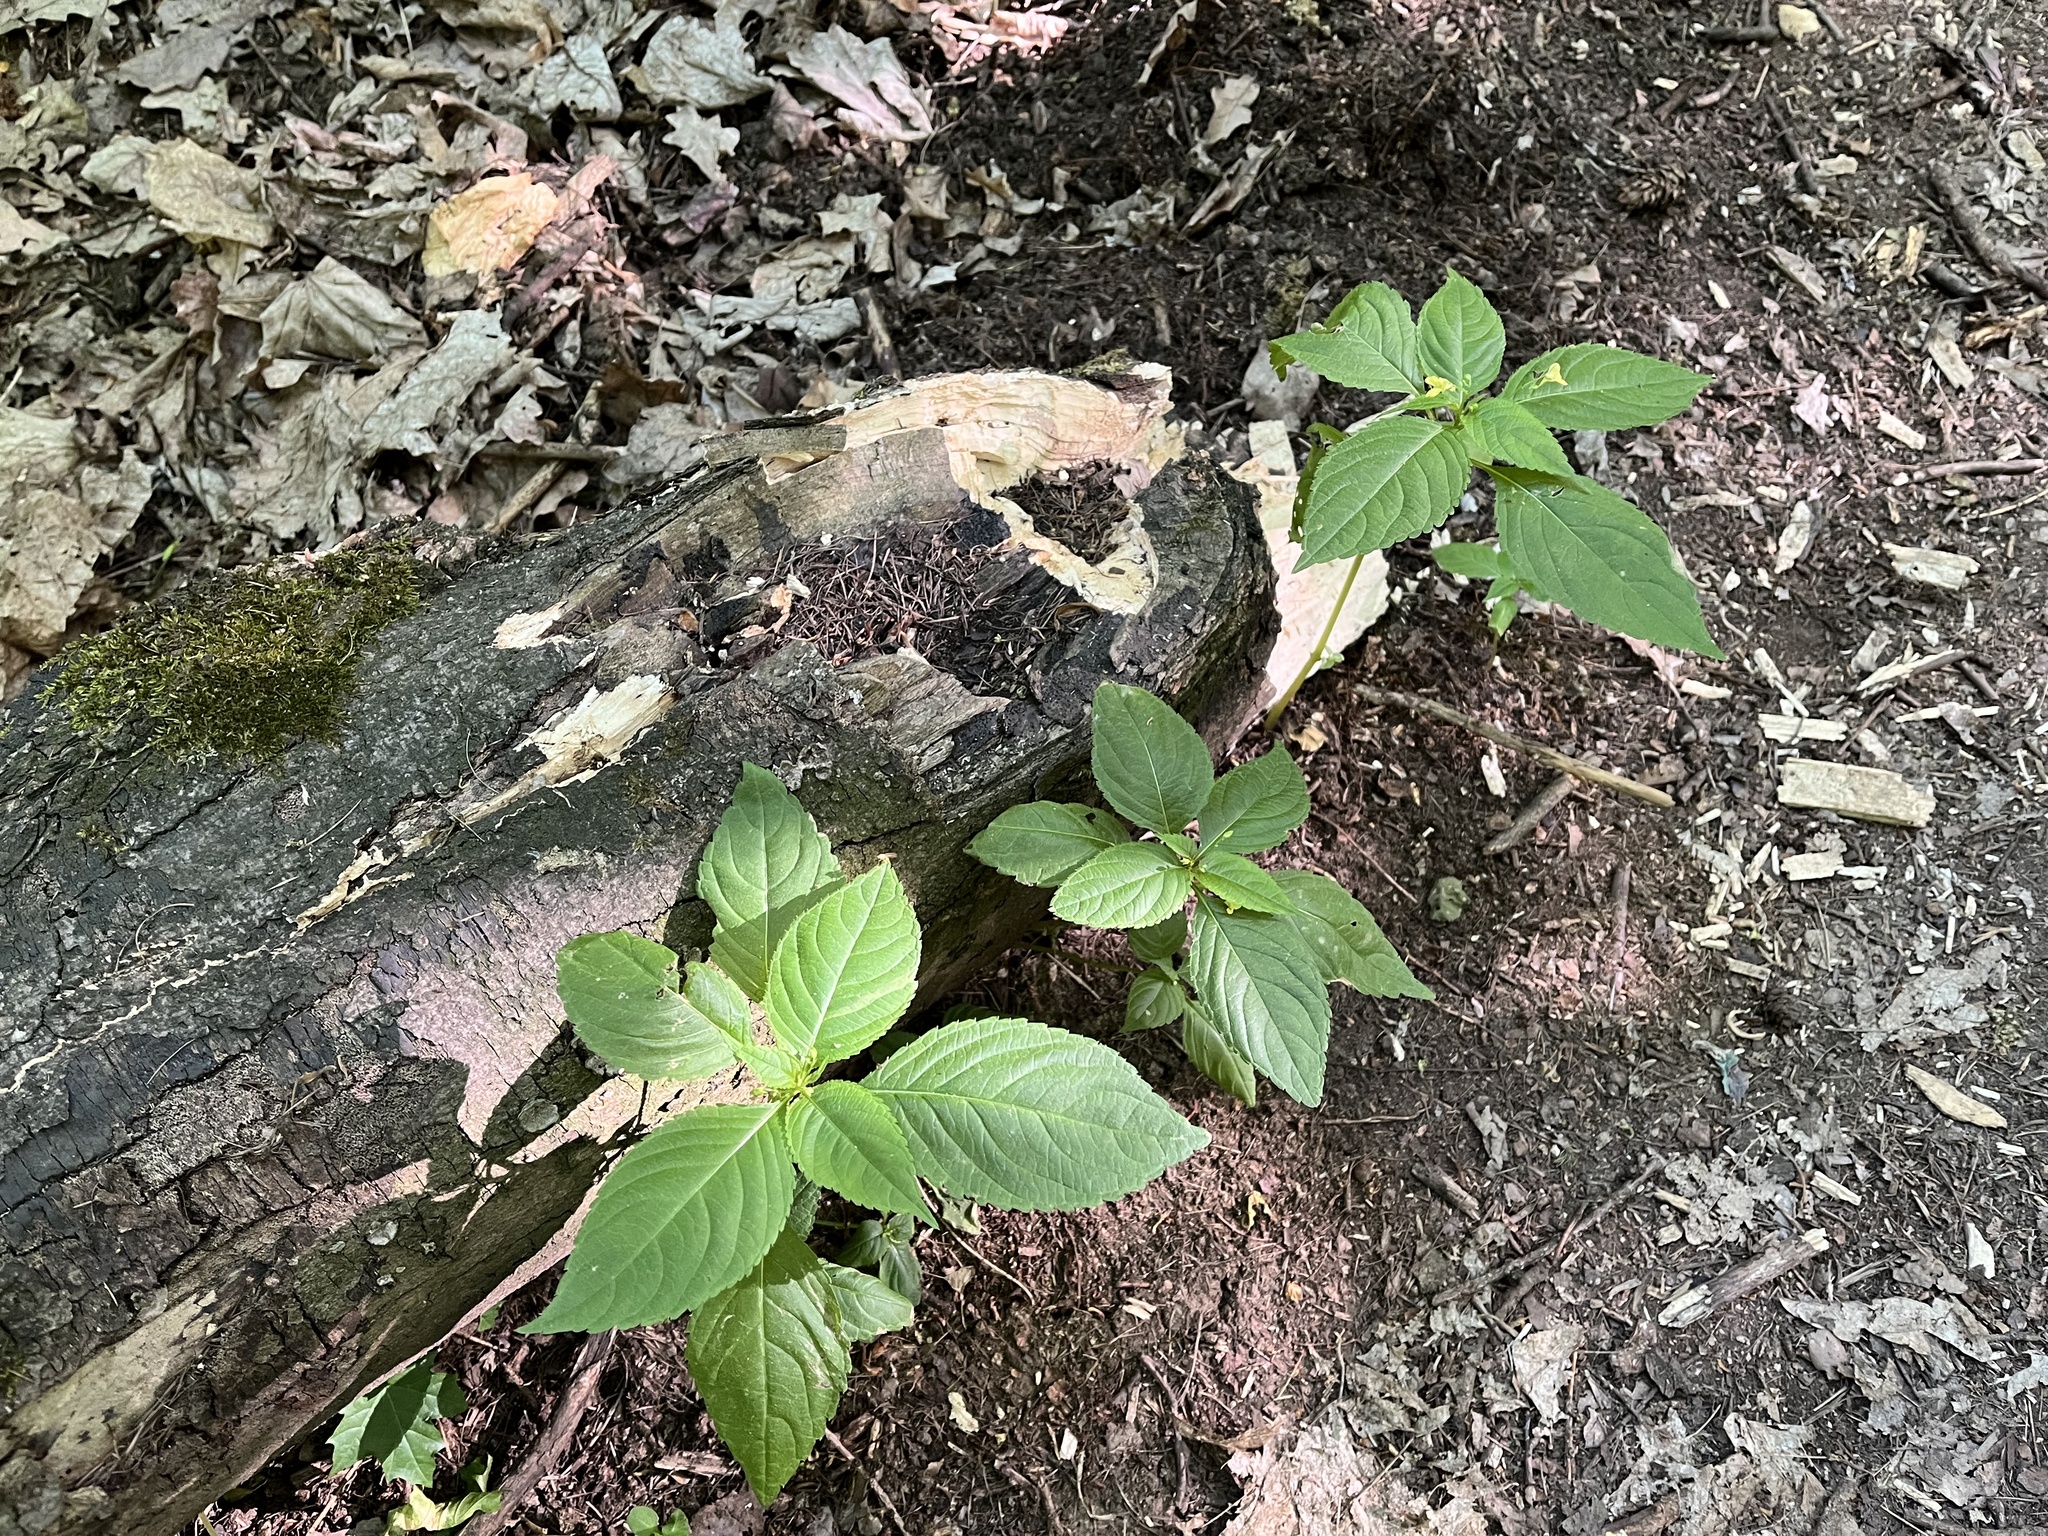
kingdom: Plantae
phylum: Tracheophyta
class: Magnoliopsida
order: Ericales
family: Balsaminaceae
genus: Impatiens
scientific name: Impatiens parviflora
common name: Small balsam
